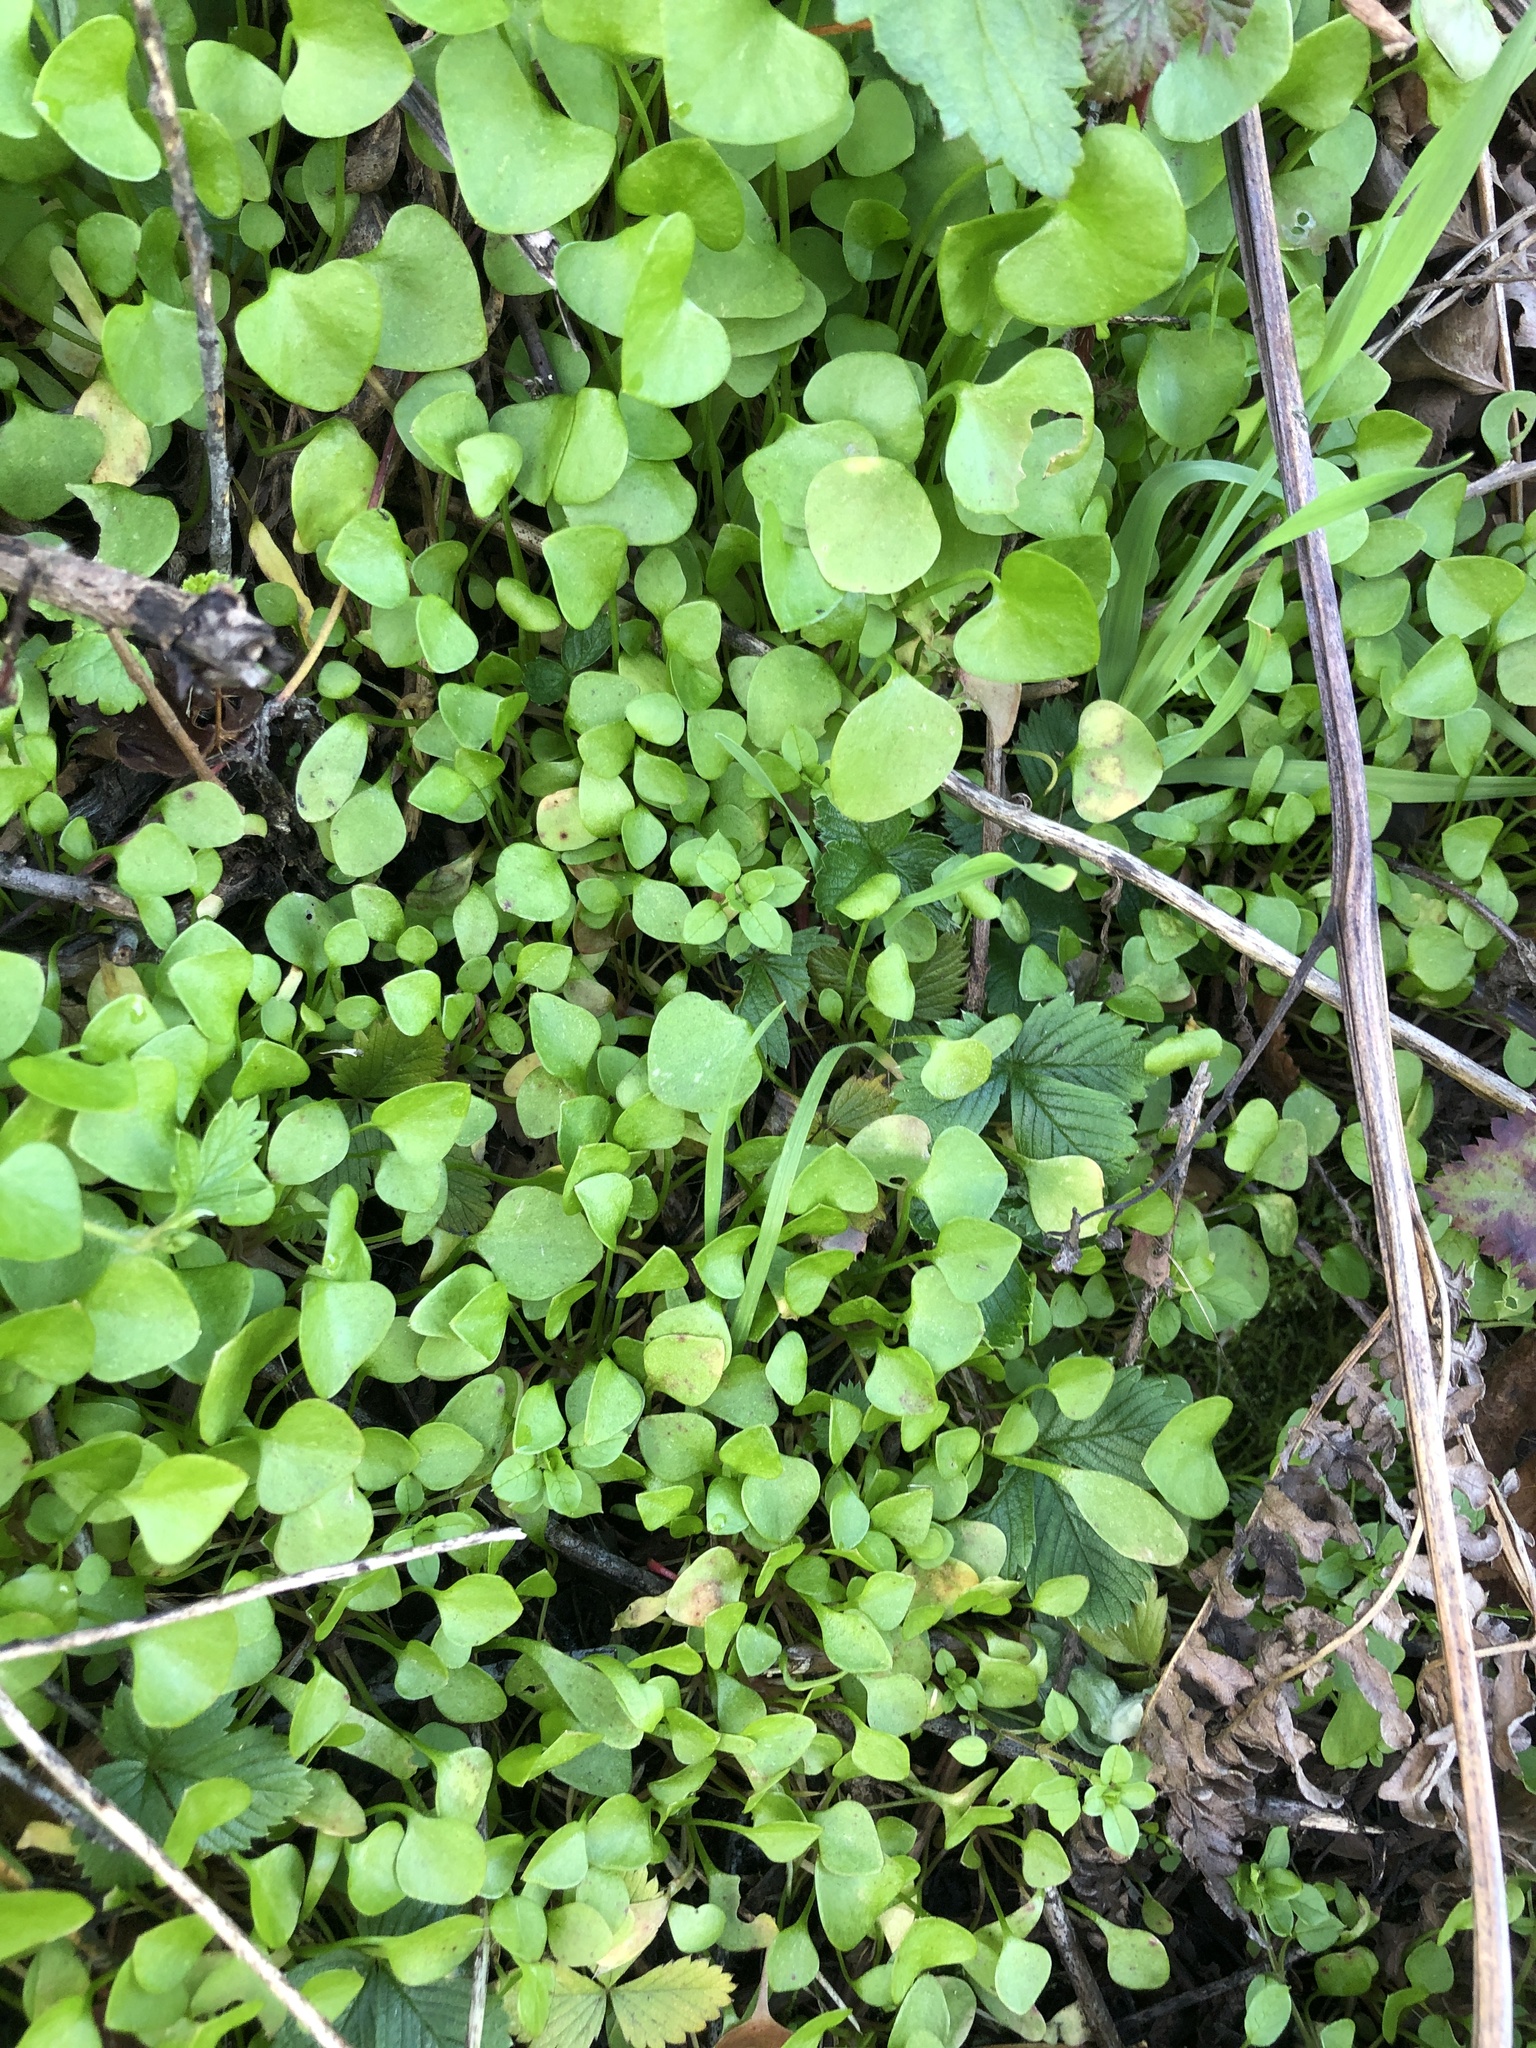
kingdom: Plantae
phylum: Tracheophyta
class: Magnoliopsida
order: Caryophyllales
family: Montiaceae
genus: Claytonia
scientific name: Claytonia perfoliata
